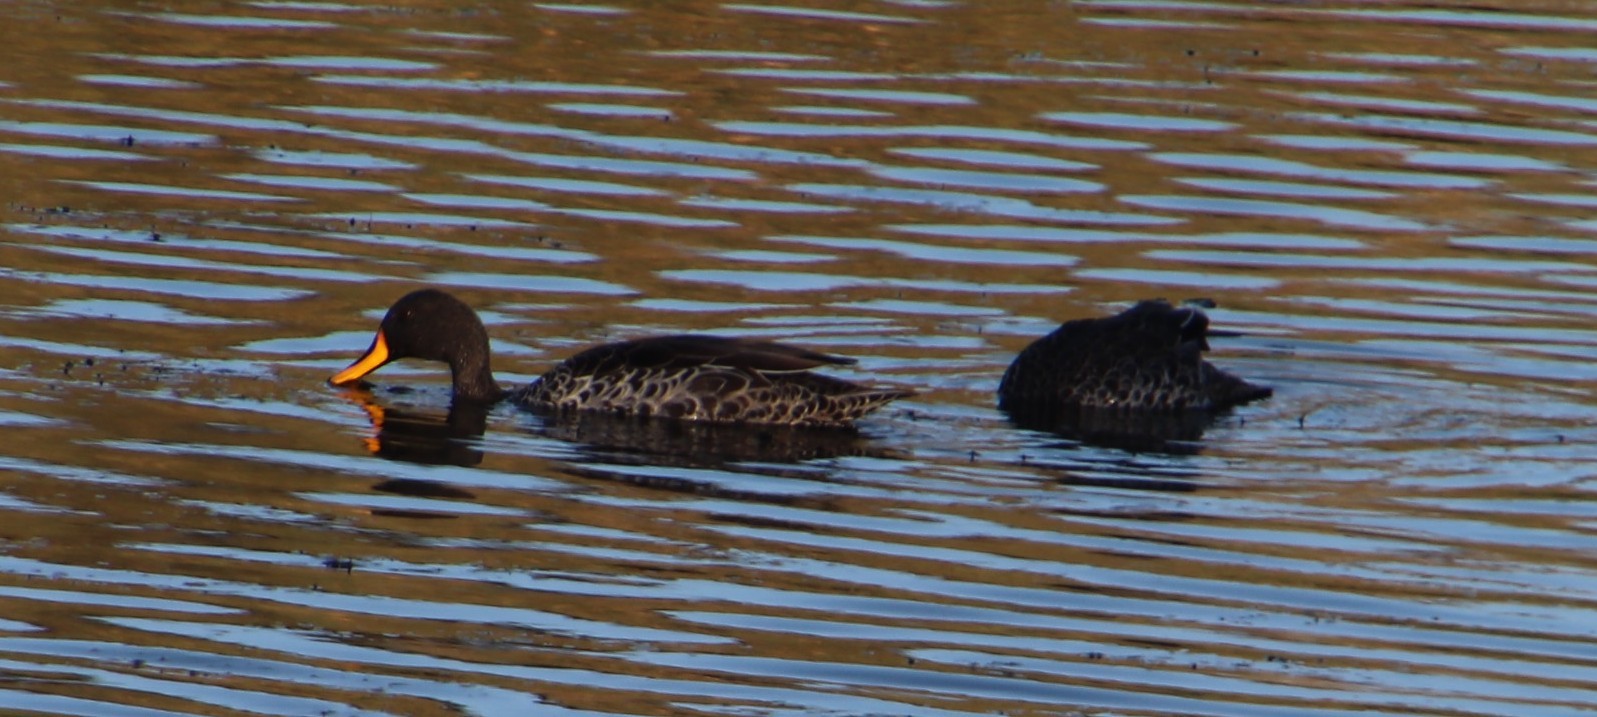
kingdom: Animalia
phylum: Chordata
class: Aves
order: Anseriformes
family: Anatidae
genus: Anas
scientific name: Anas undulata
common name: Yellow-billed duck
